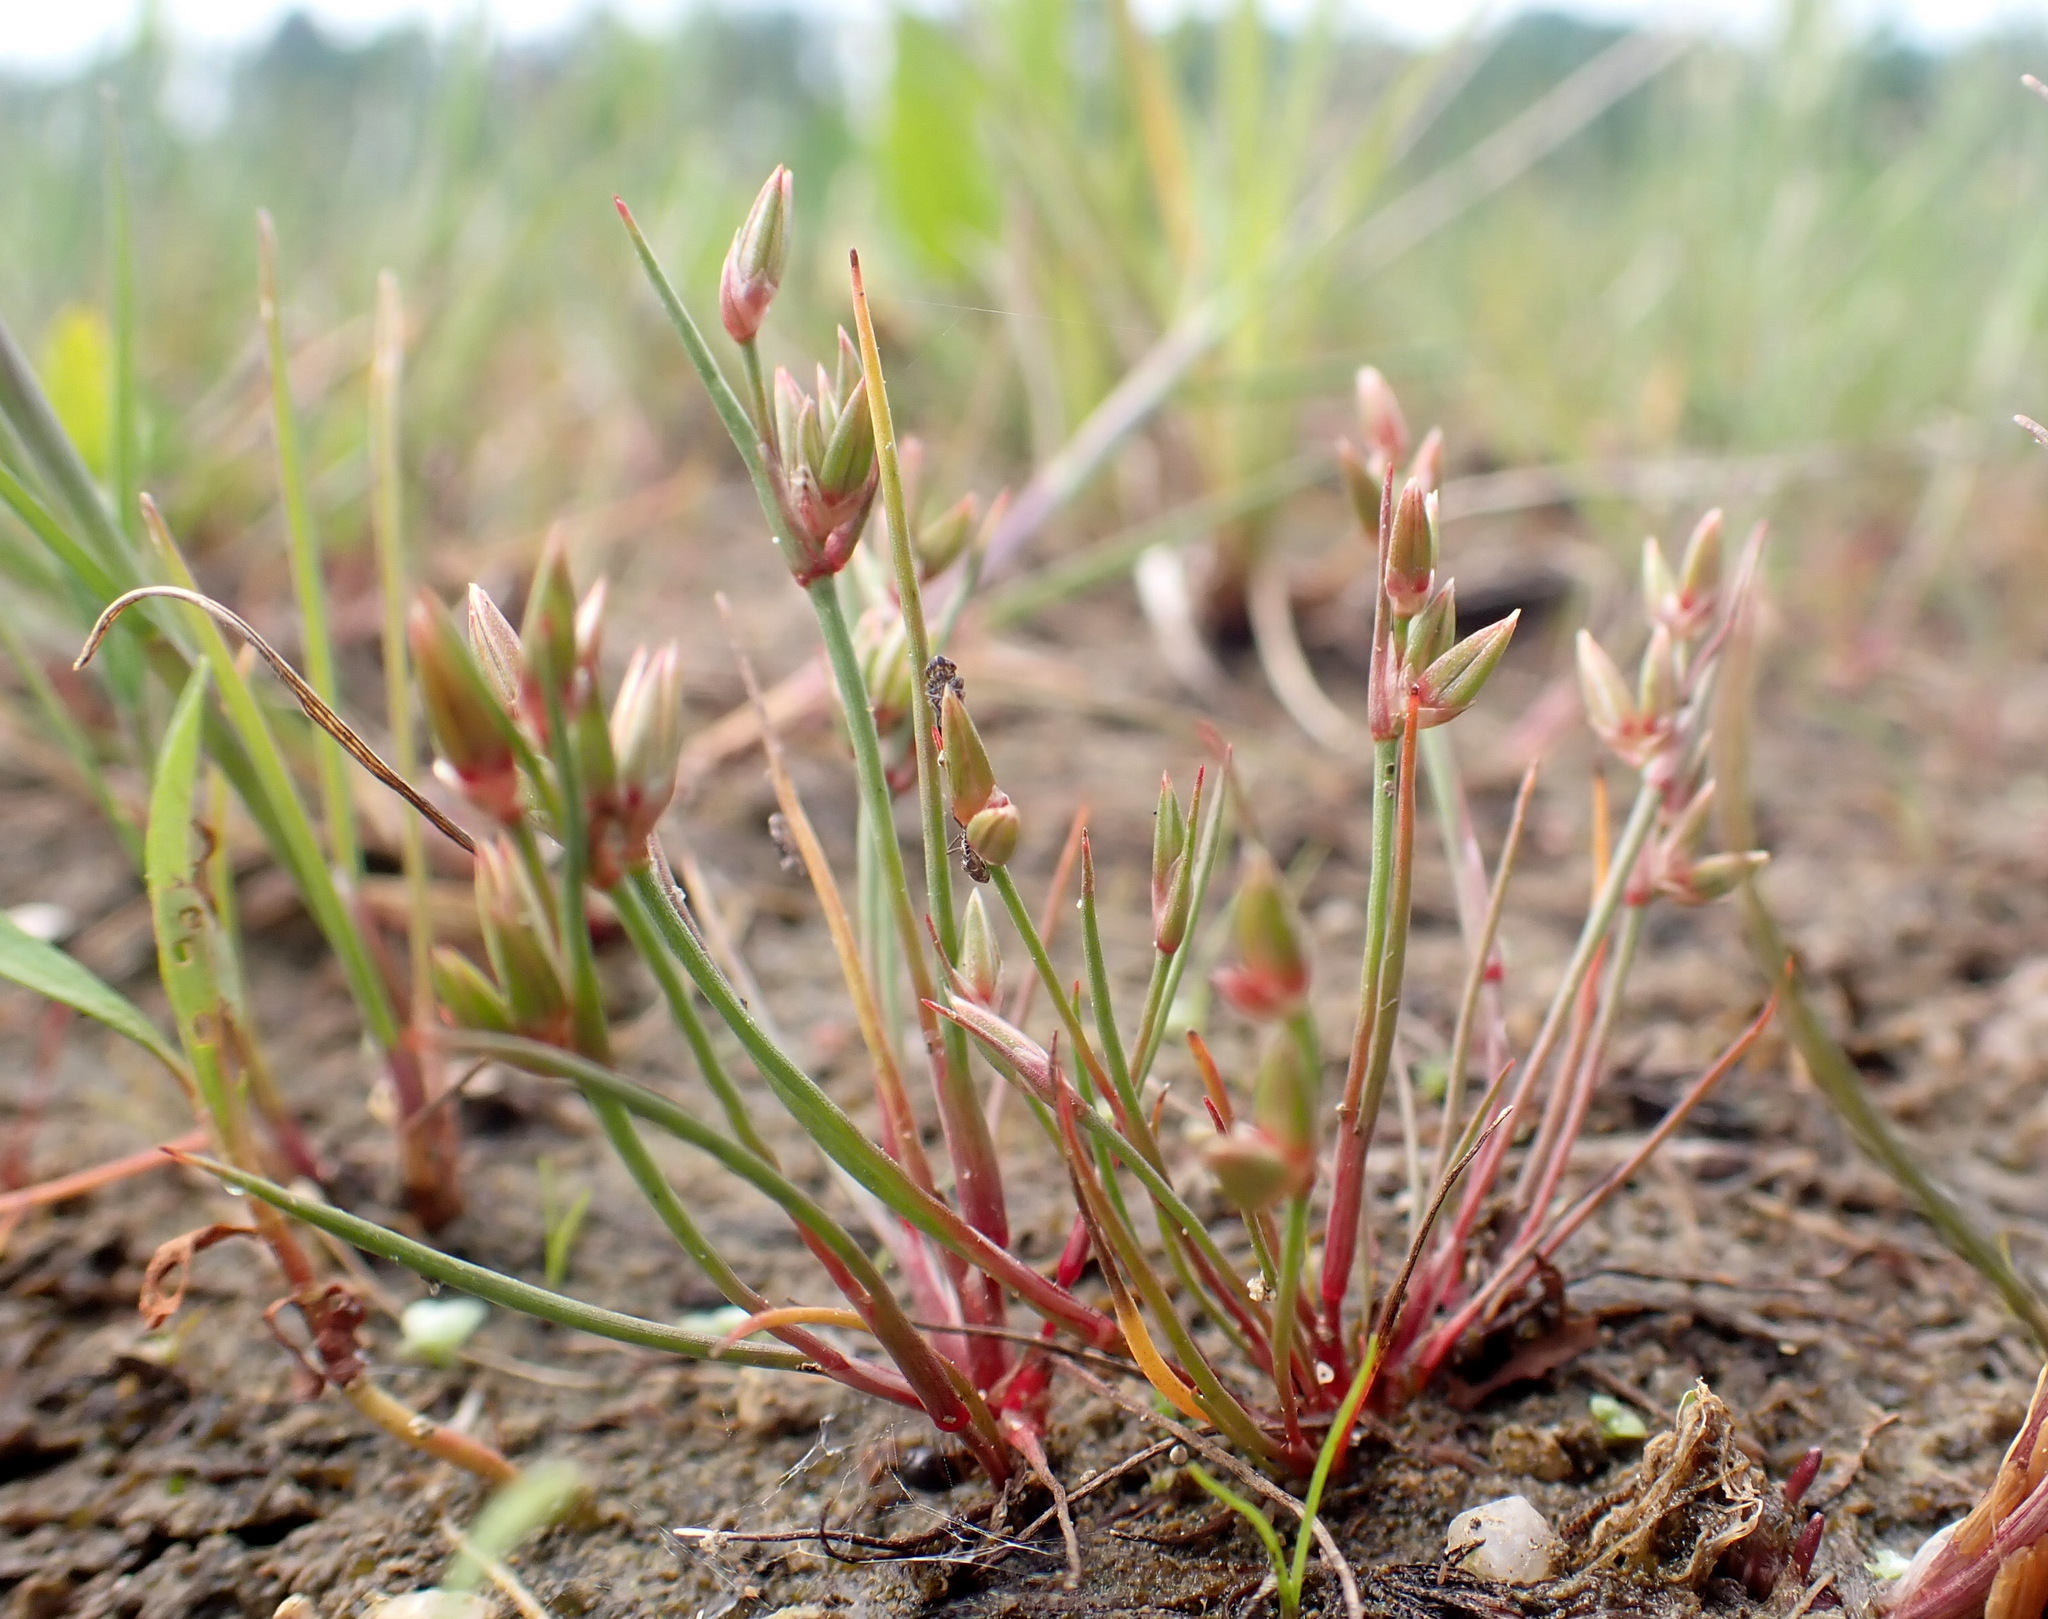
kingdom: Plantae
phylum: Tracheophyta
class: Liliopsida
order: Poales
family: Juncaceae
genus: Juncus
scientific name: Juncus pygmaeus
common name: Pigmy rush
